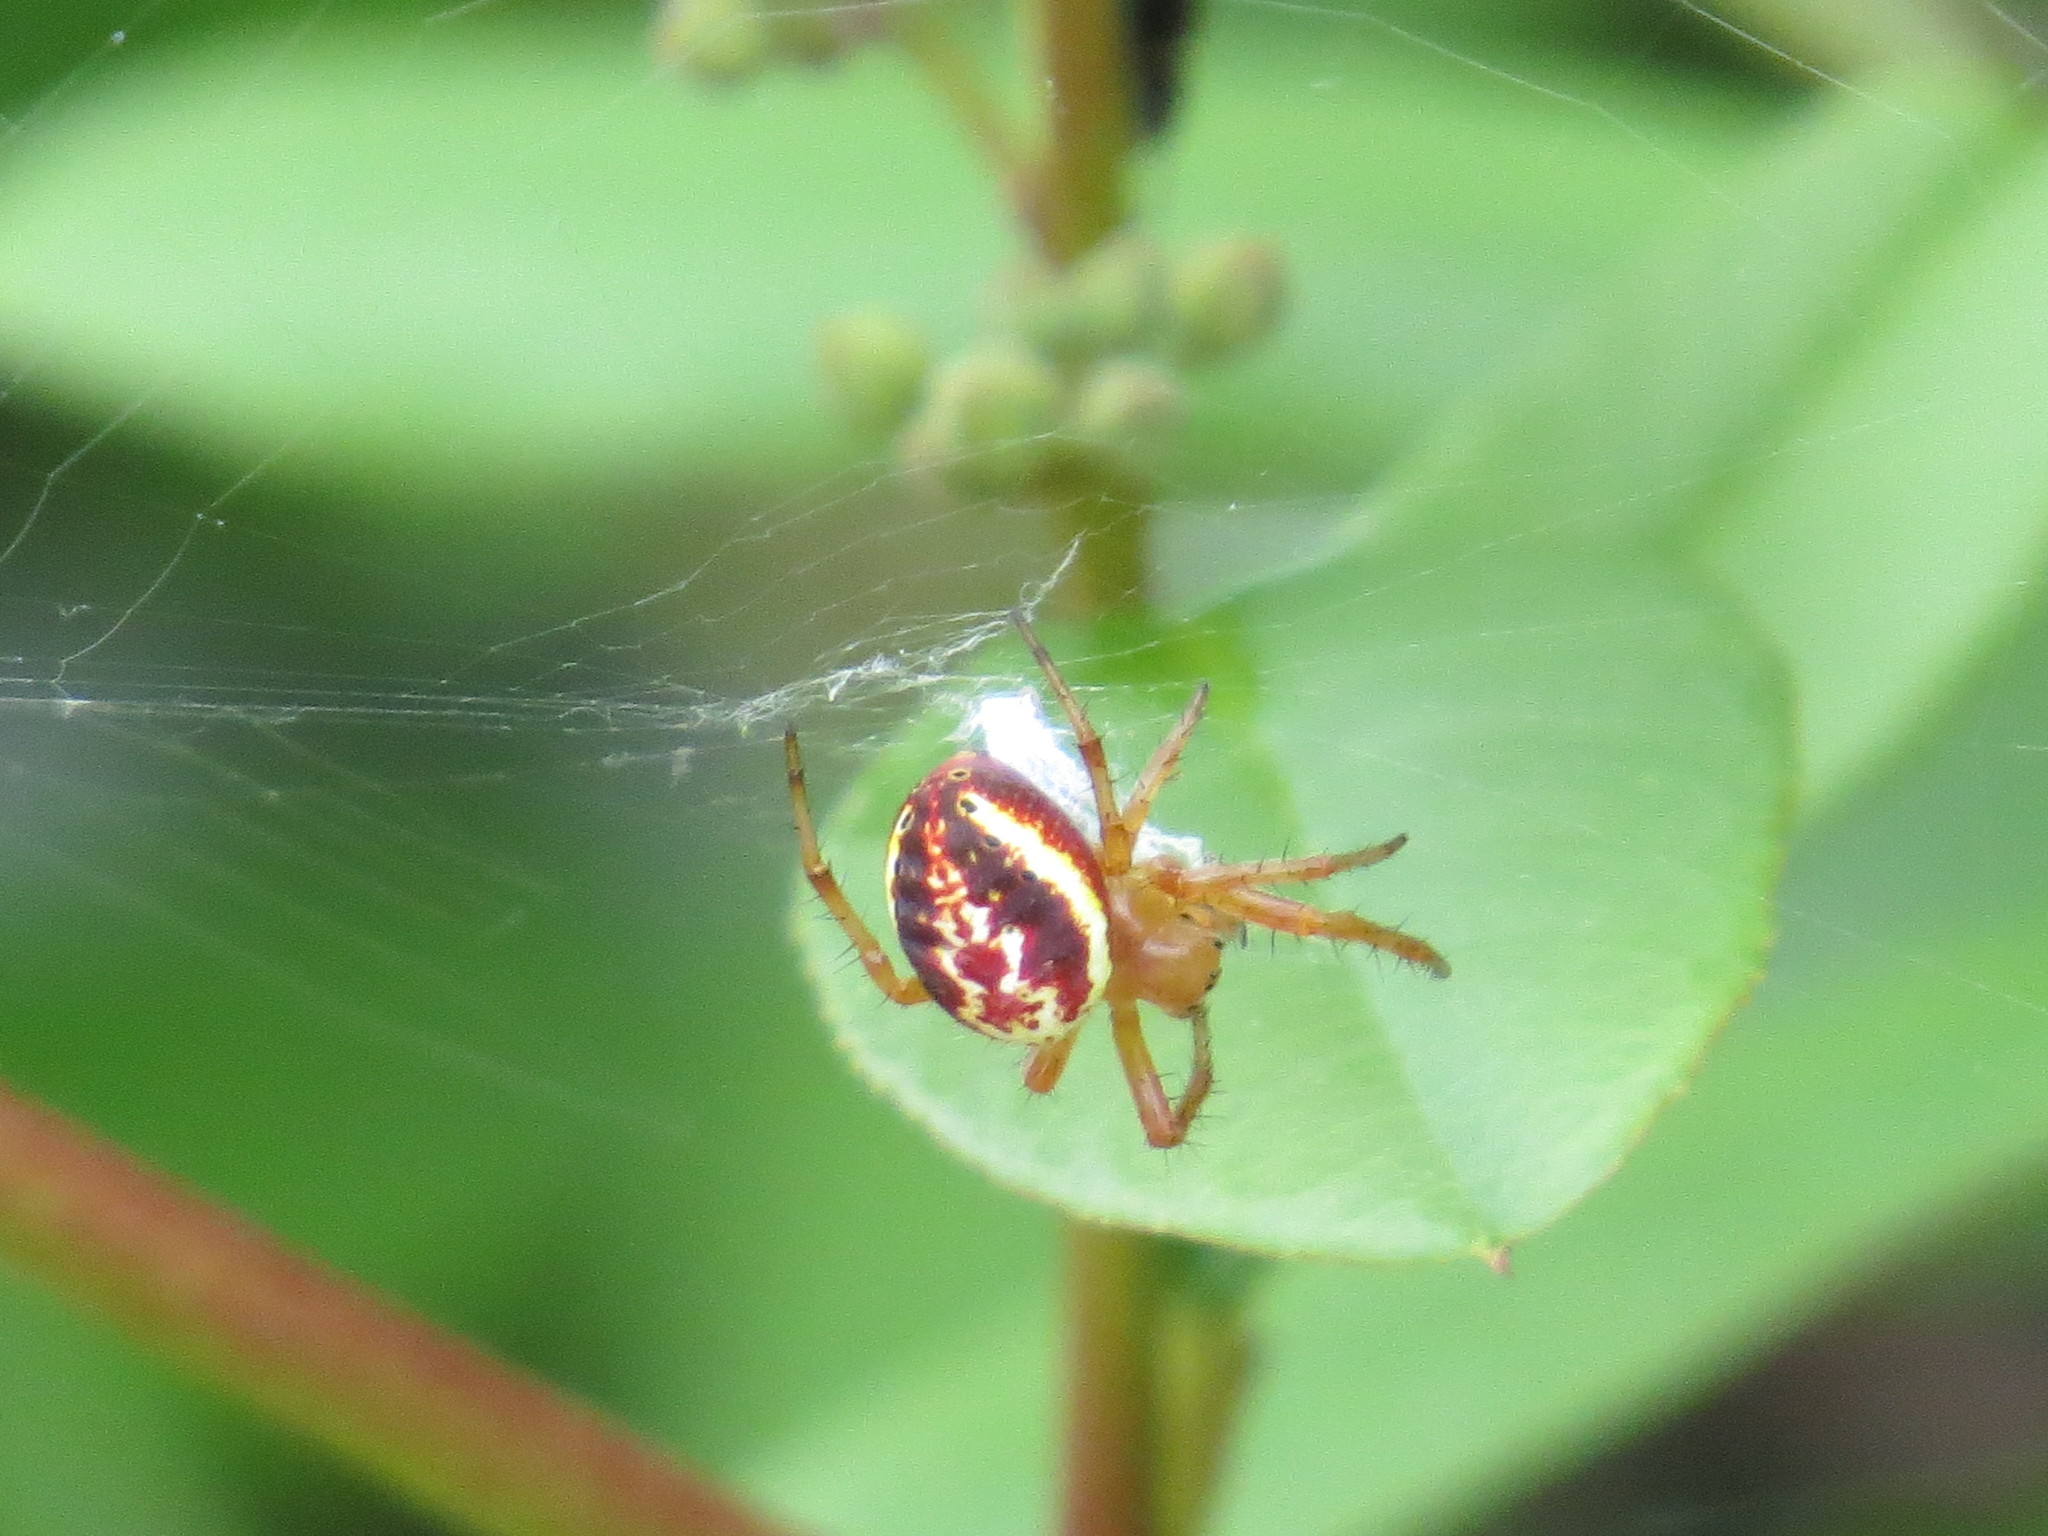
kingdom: Animalia
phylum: Arthropoda
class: Arachnida
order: Araneae
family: Araneidae
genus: Araniella
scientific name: Araniella displicata
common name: Sixspotted orb weaver
